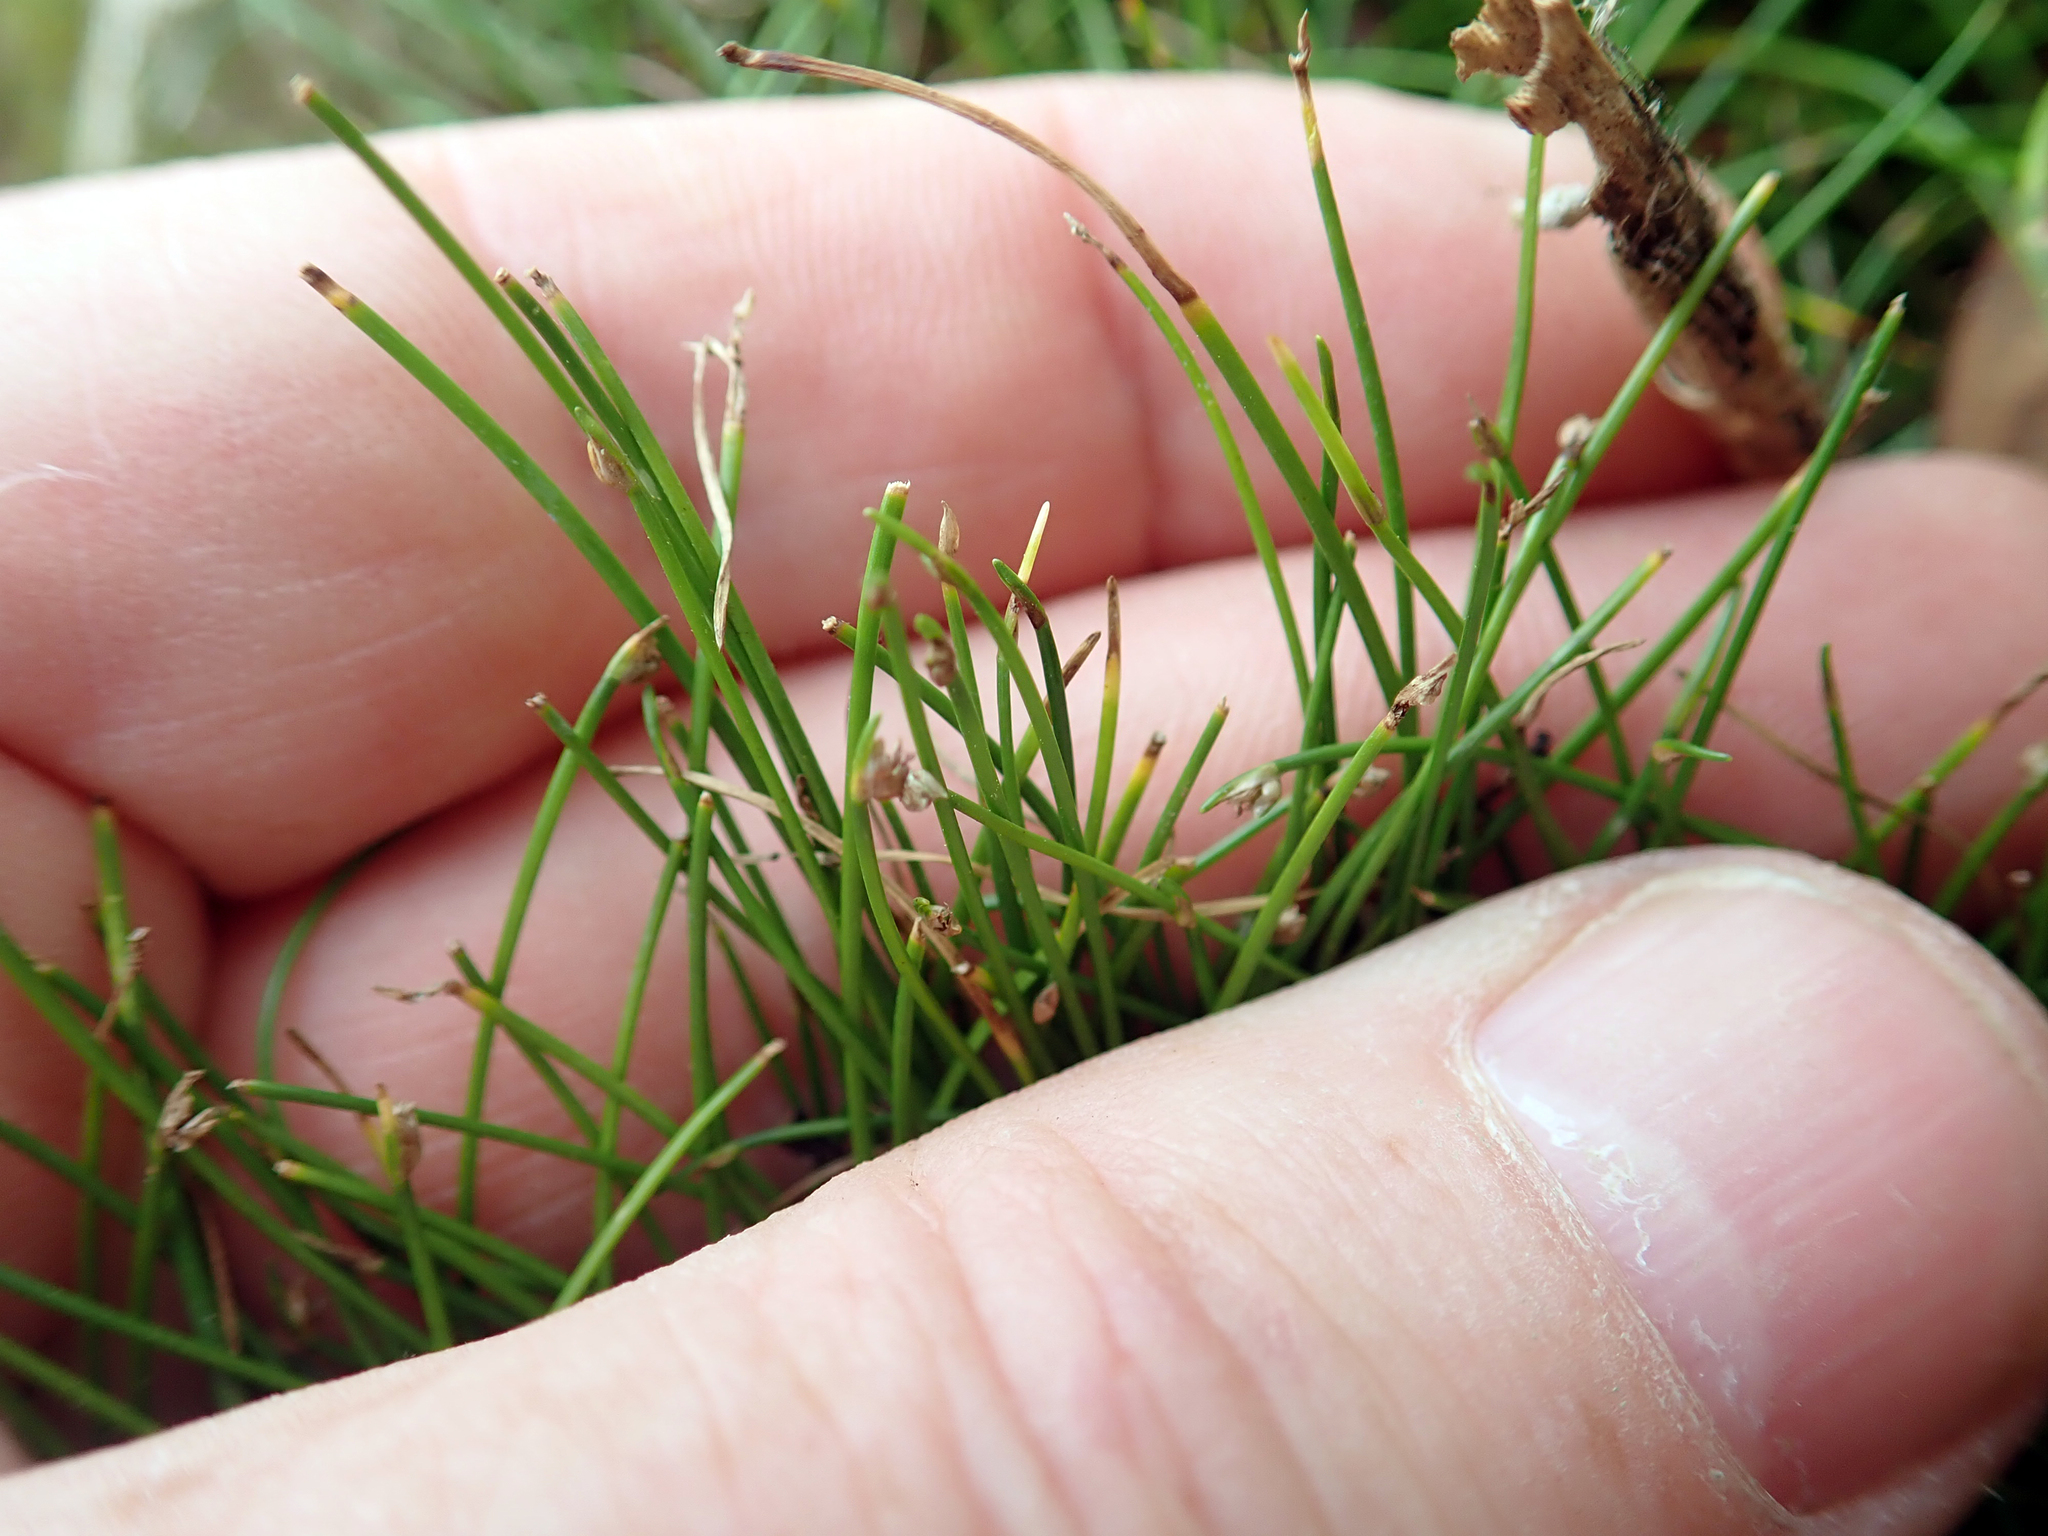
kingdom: Plantae
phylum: Tracheophyta
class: Liliopsida
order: Poales
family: Cyperaceae
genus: Isolepis
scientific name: Isolepis cernua
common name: Slender club-rush
